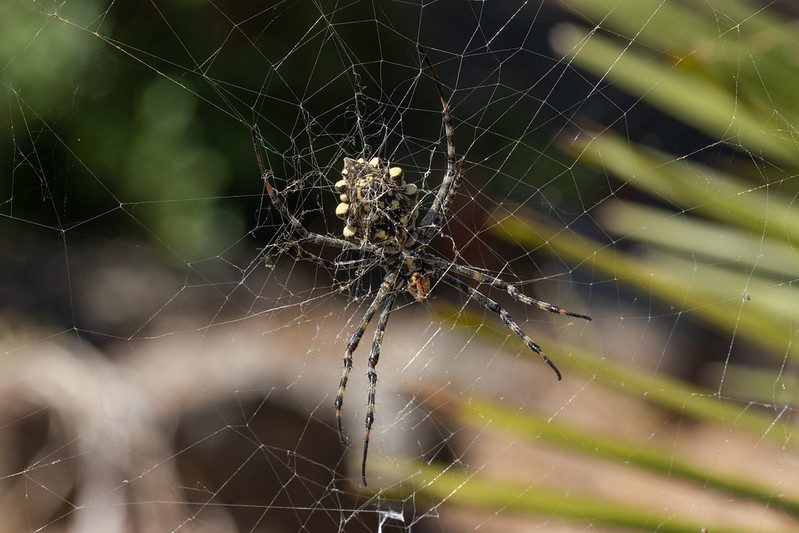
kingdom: Animalia
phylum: Arthropoda
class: Arachnida
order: Araneae
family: Araneidae
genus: Argiope
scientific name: Argiope lobata
